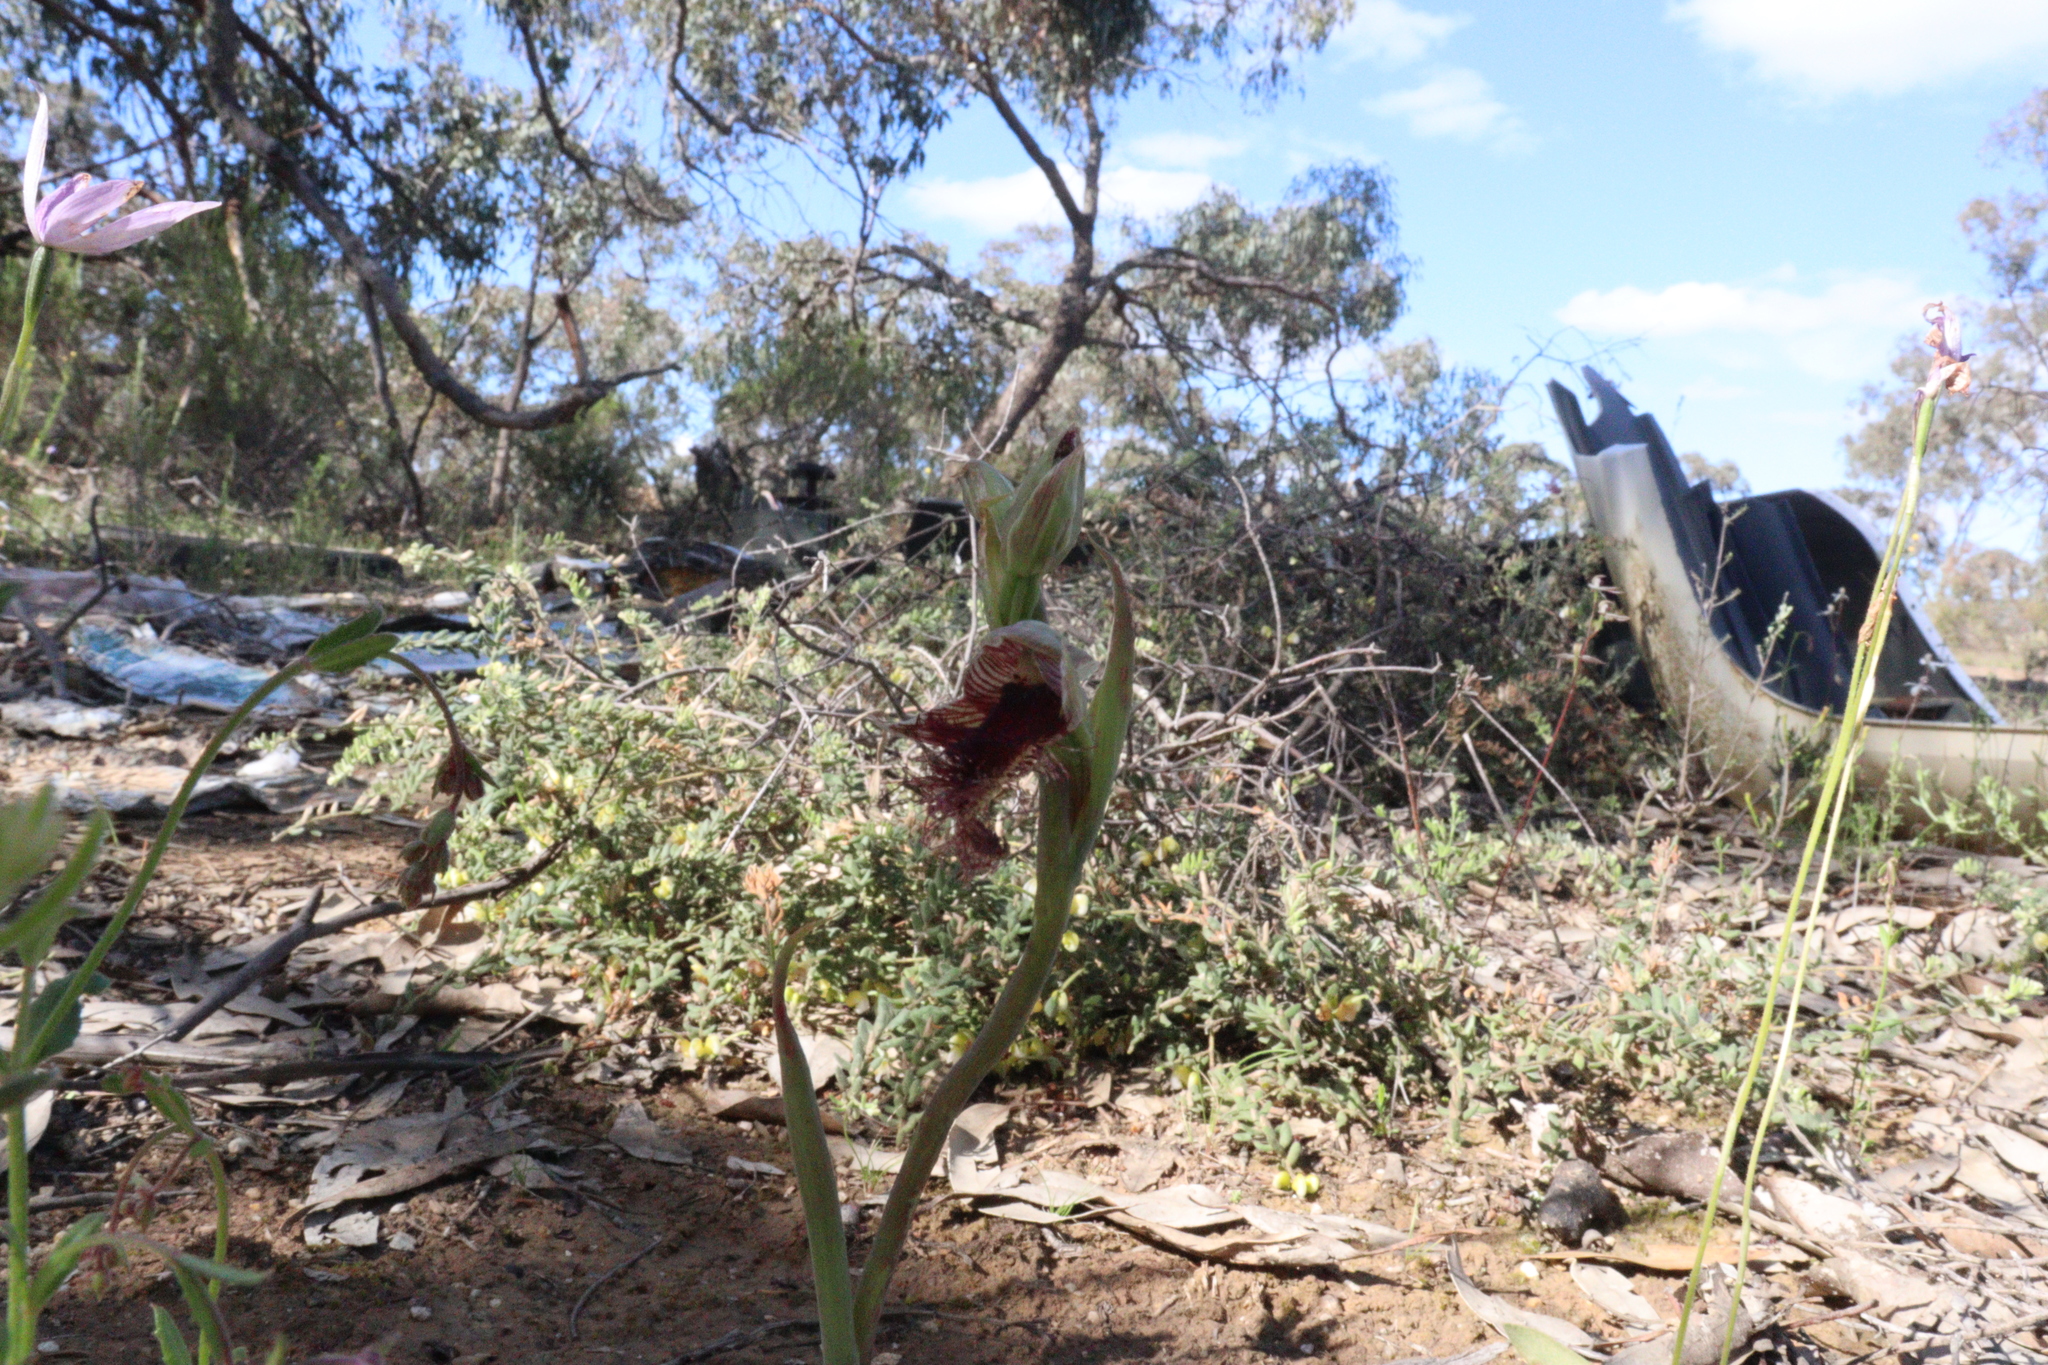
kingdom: Plantae
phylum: Tracheophyta
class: Liliopsida
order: Asparagales
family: Orchidaceae
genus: Calochilus
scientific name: Calochilus robertsonii
